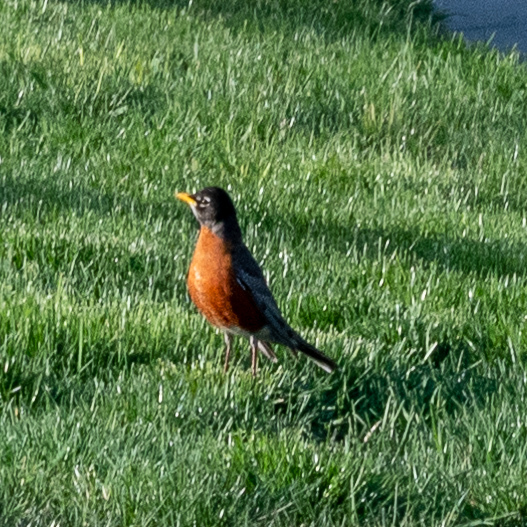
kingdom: Animalia
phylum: Chordata
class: Aves
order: Passeriformes
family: Turdidae
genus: Turdus
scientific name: Turdus migratorius
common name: American robin
